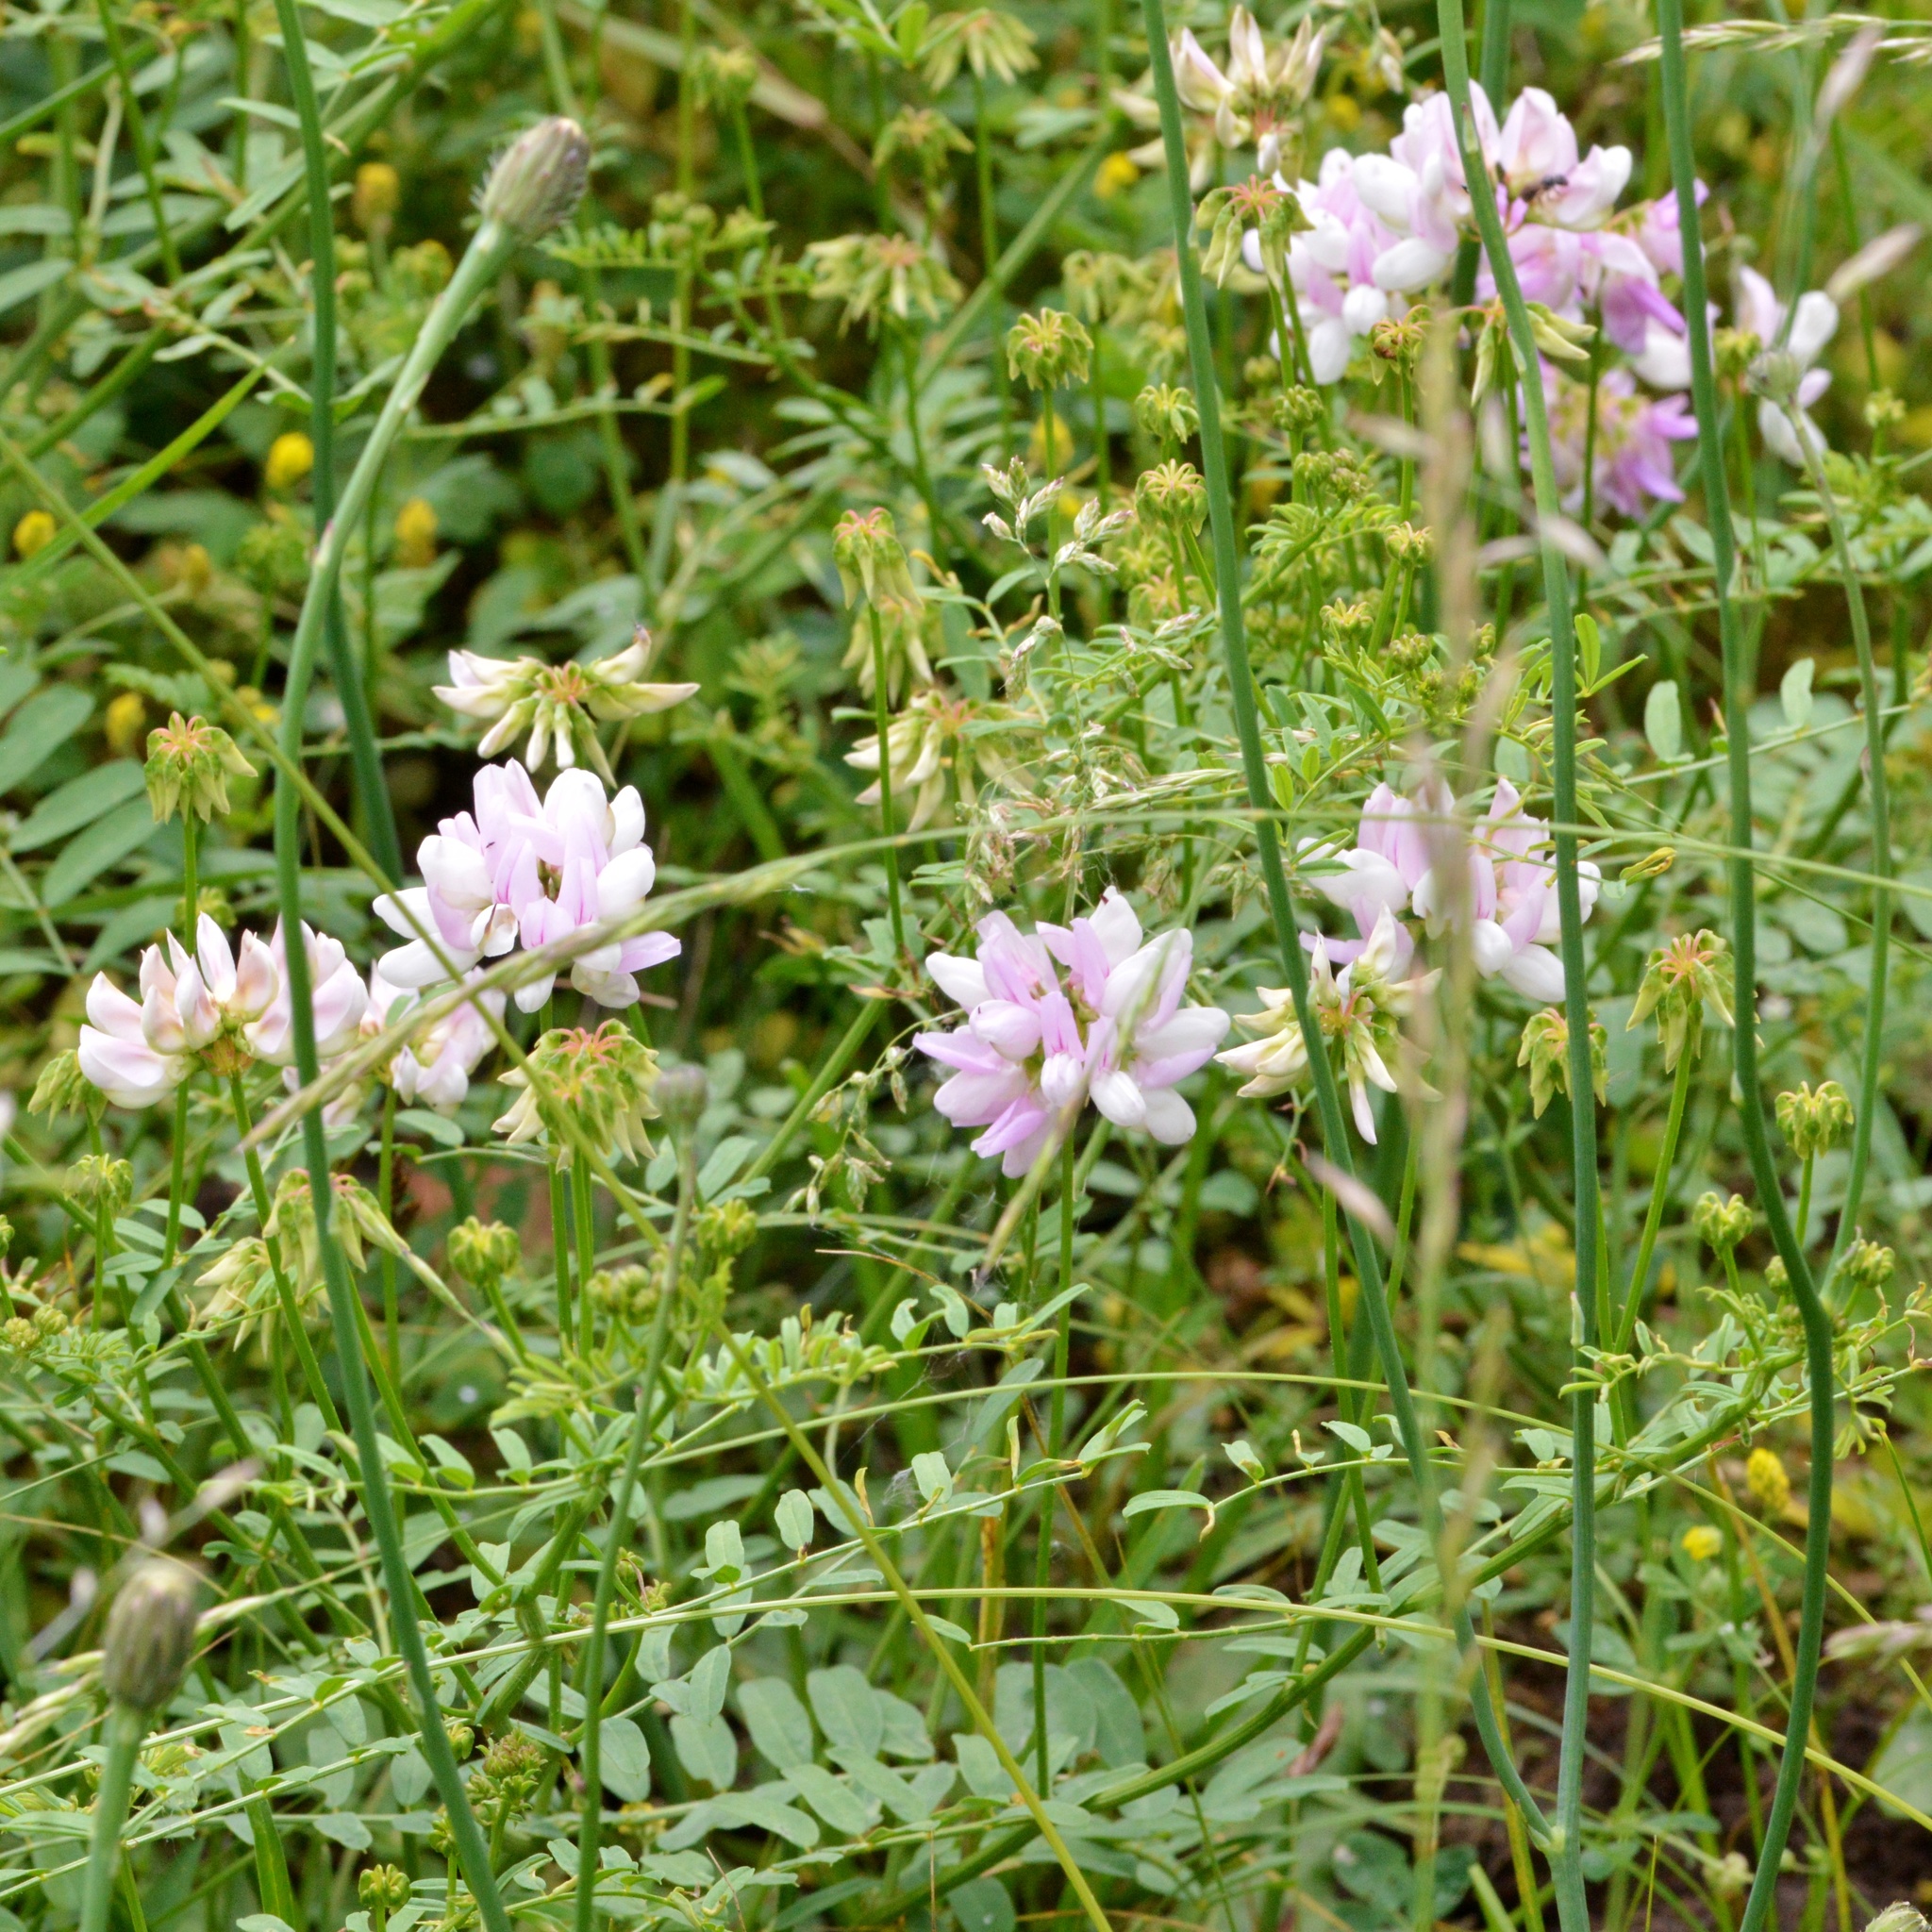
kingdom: Plantae
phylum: Tracheophyta
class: Magnoliopsida
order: Fabales
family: Fabaceae
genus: Coronilla
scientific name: Coronilla varia
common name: Crownvetch
